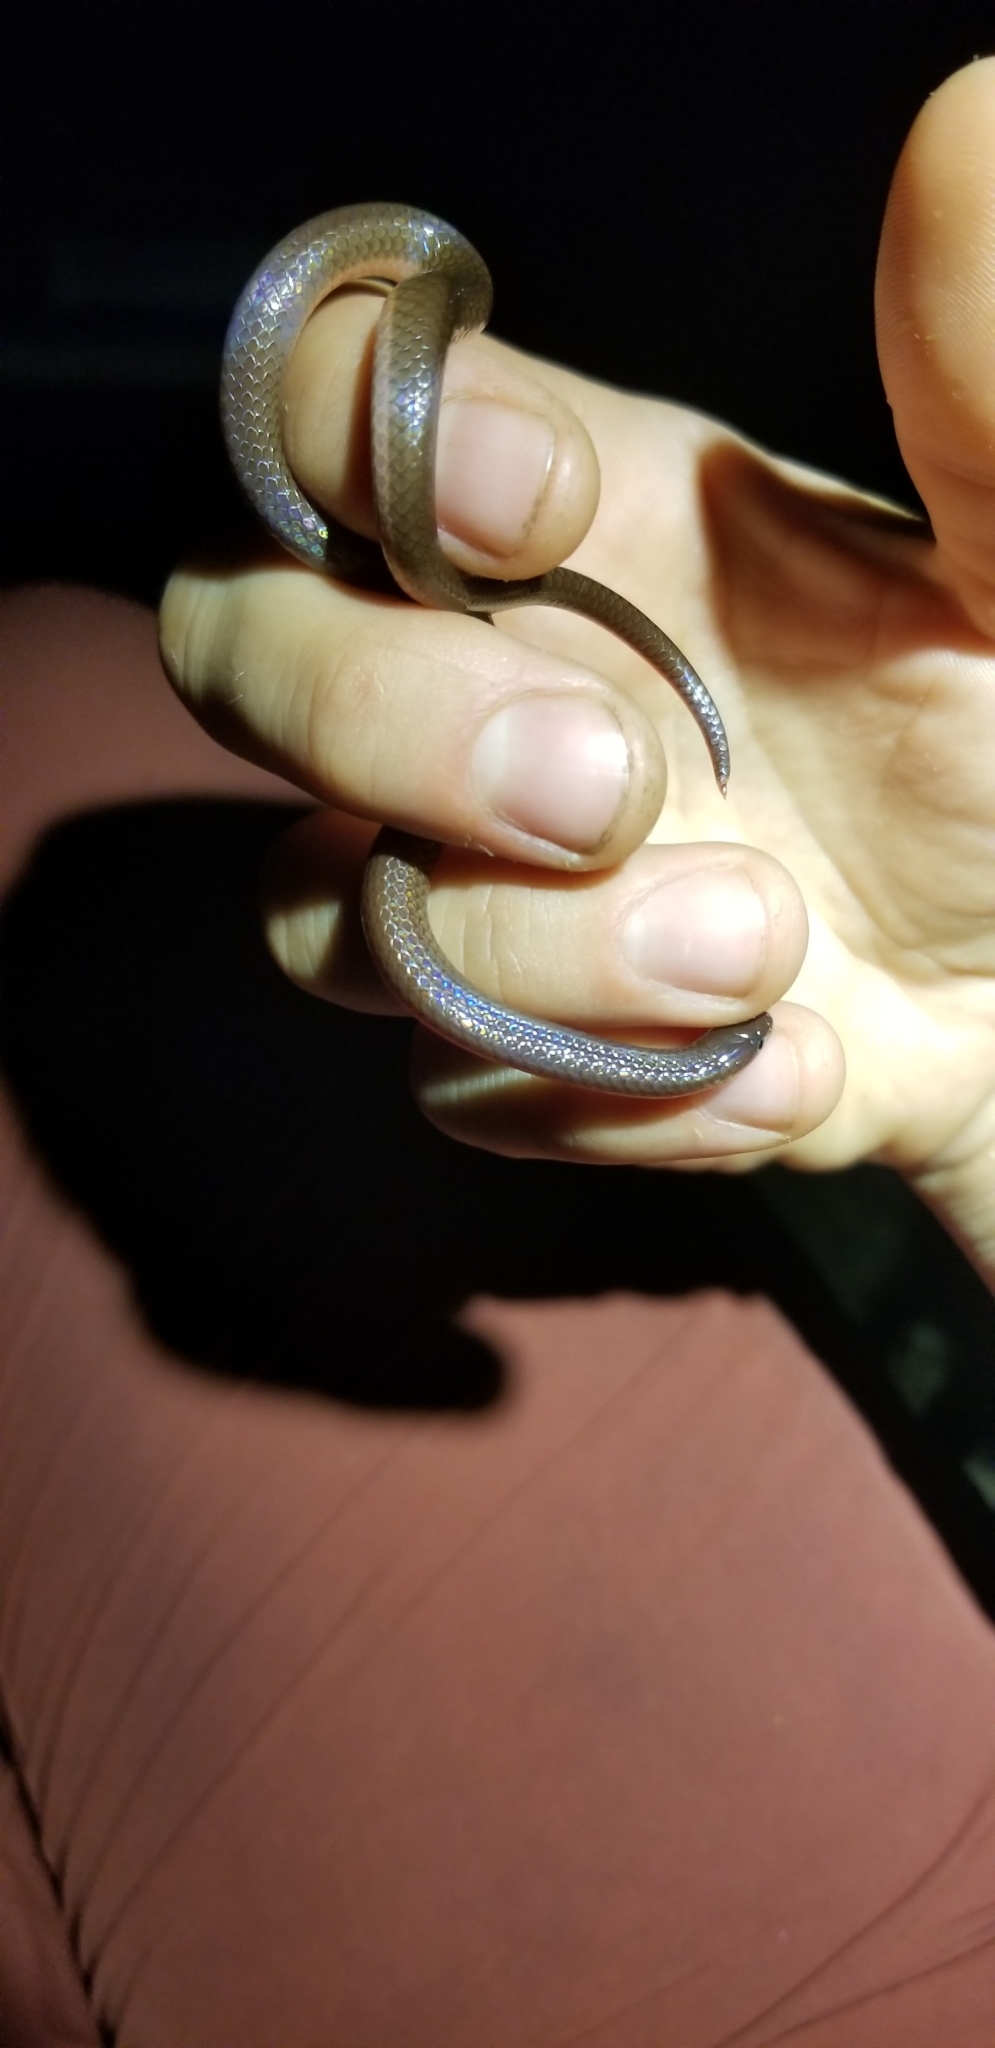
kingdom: Animalia
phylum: Chordata
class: Squamata
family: Colubridae
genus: Carphophis
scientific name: Carphophis amoenus
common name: Eastern worm snake
